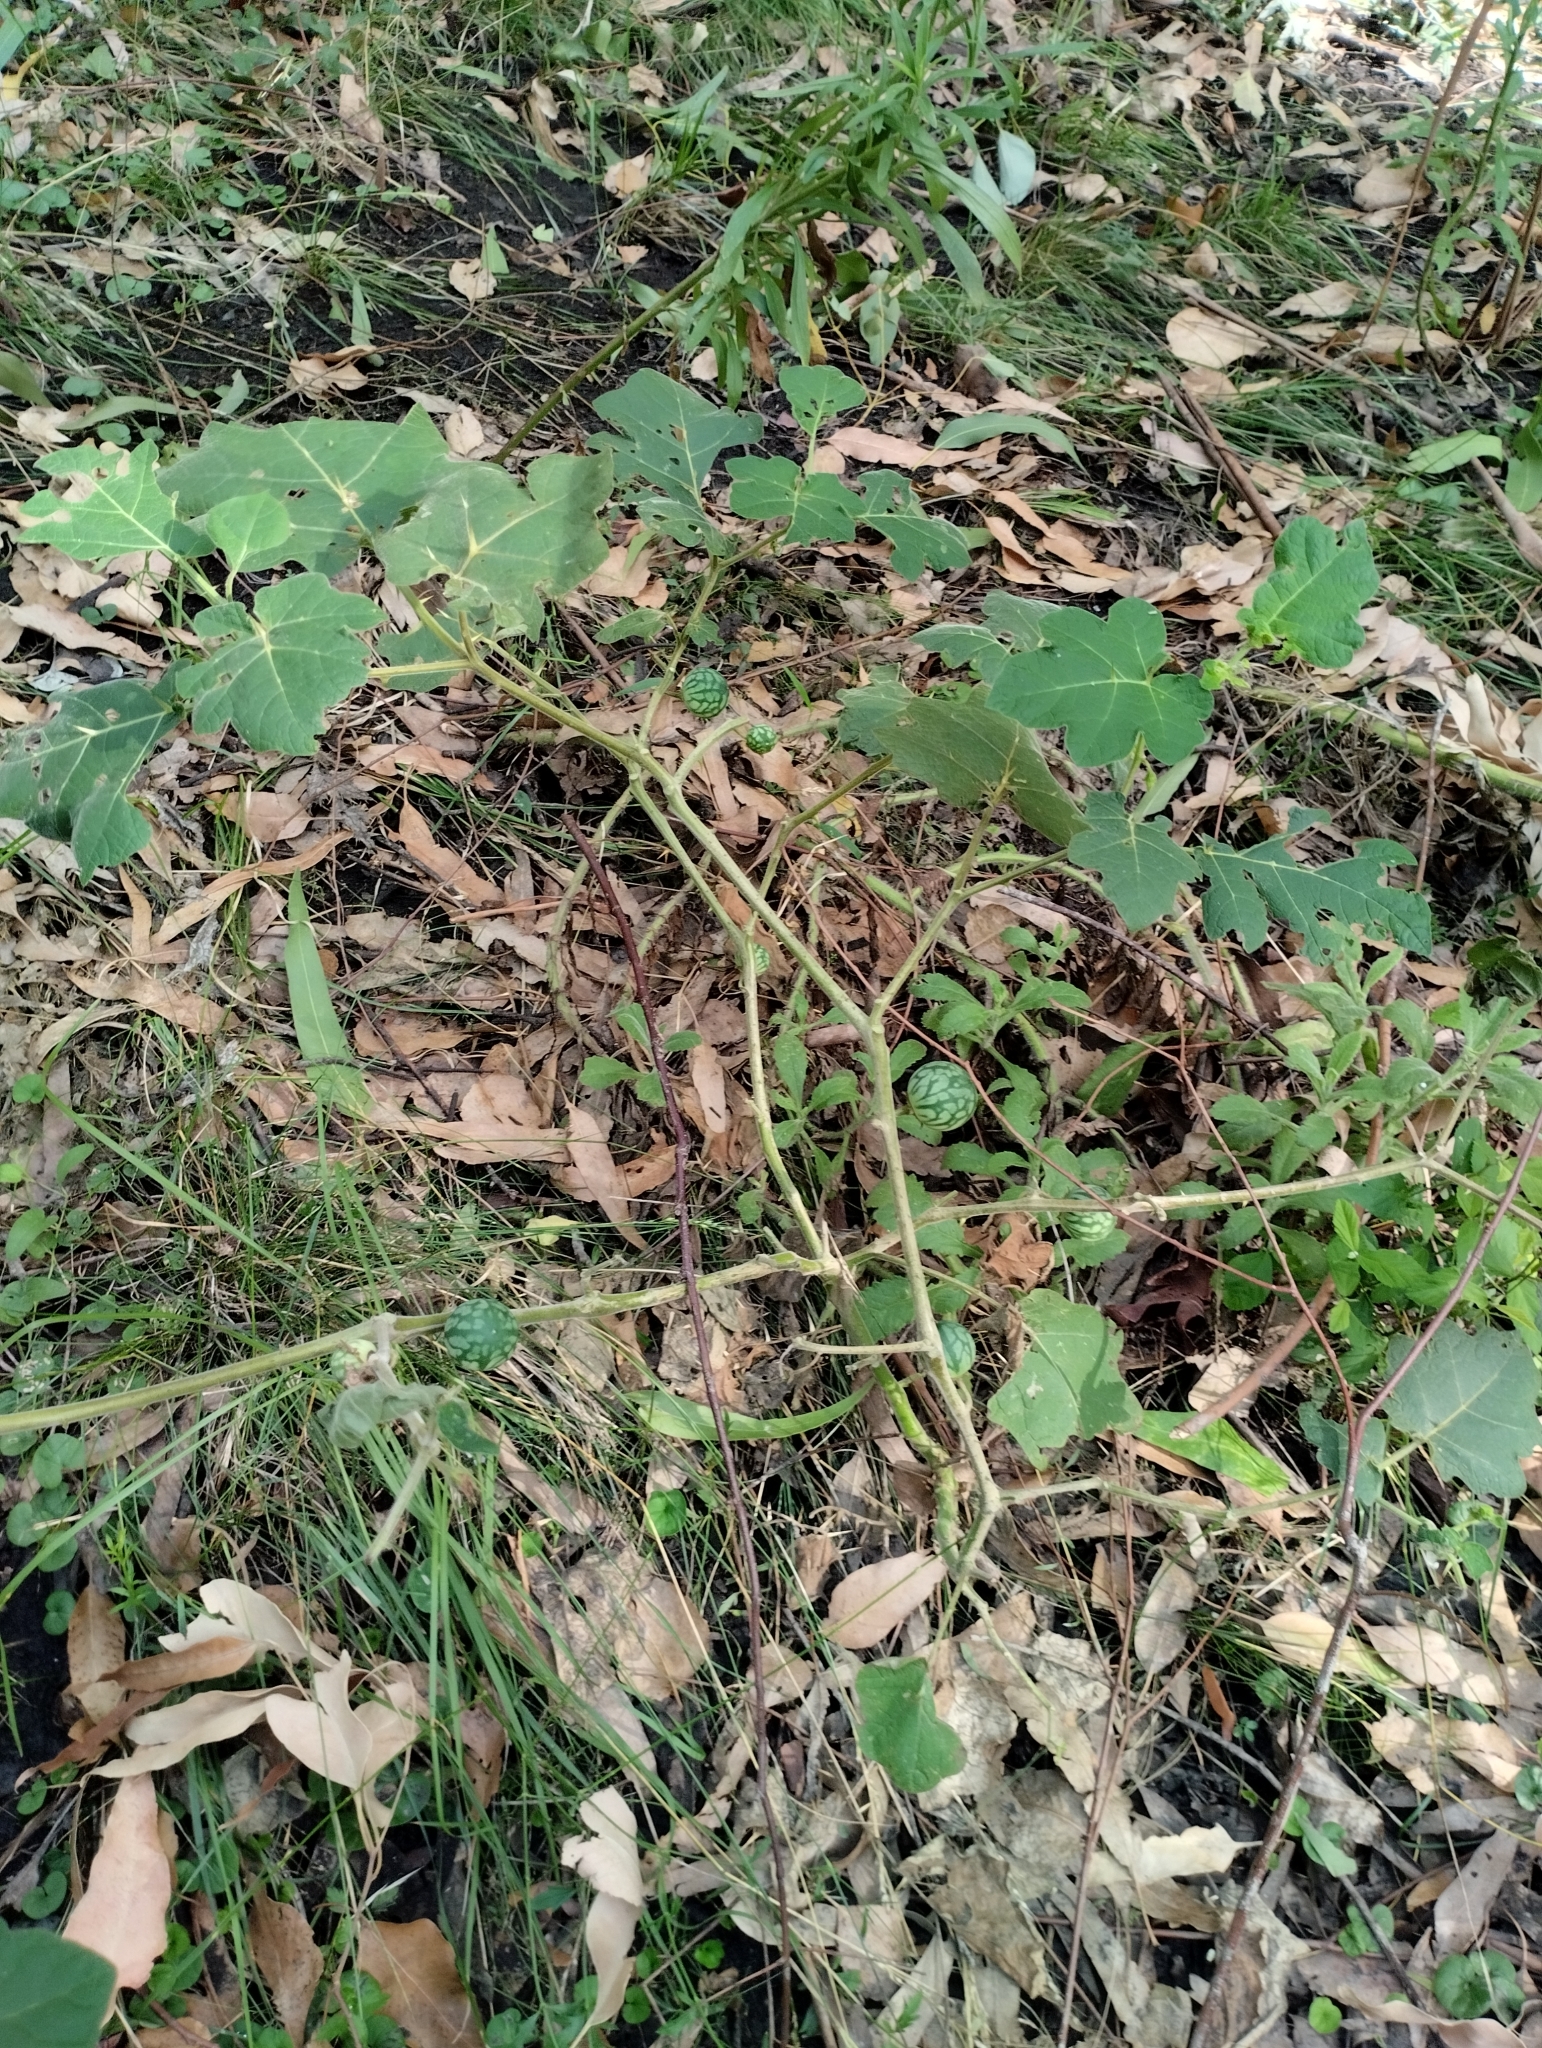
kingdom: Plantae
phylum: Tracheophyta
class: Magnoliopsida
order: Solanales
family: Solanaceae
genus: Solanum
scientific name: Solanum viarum
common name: Tropical soda apple
